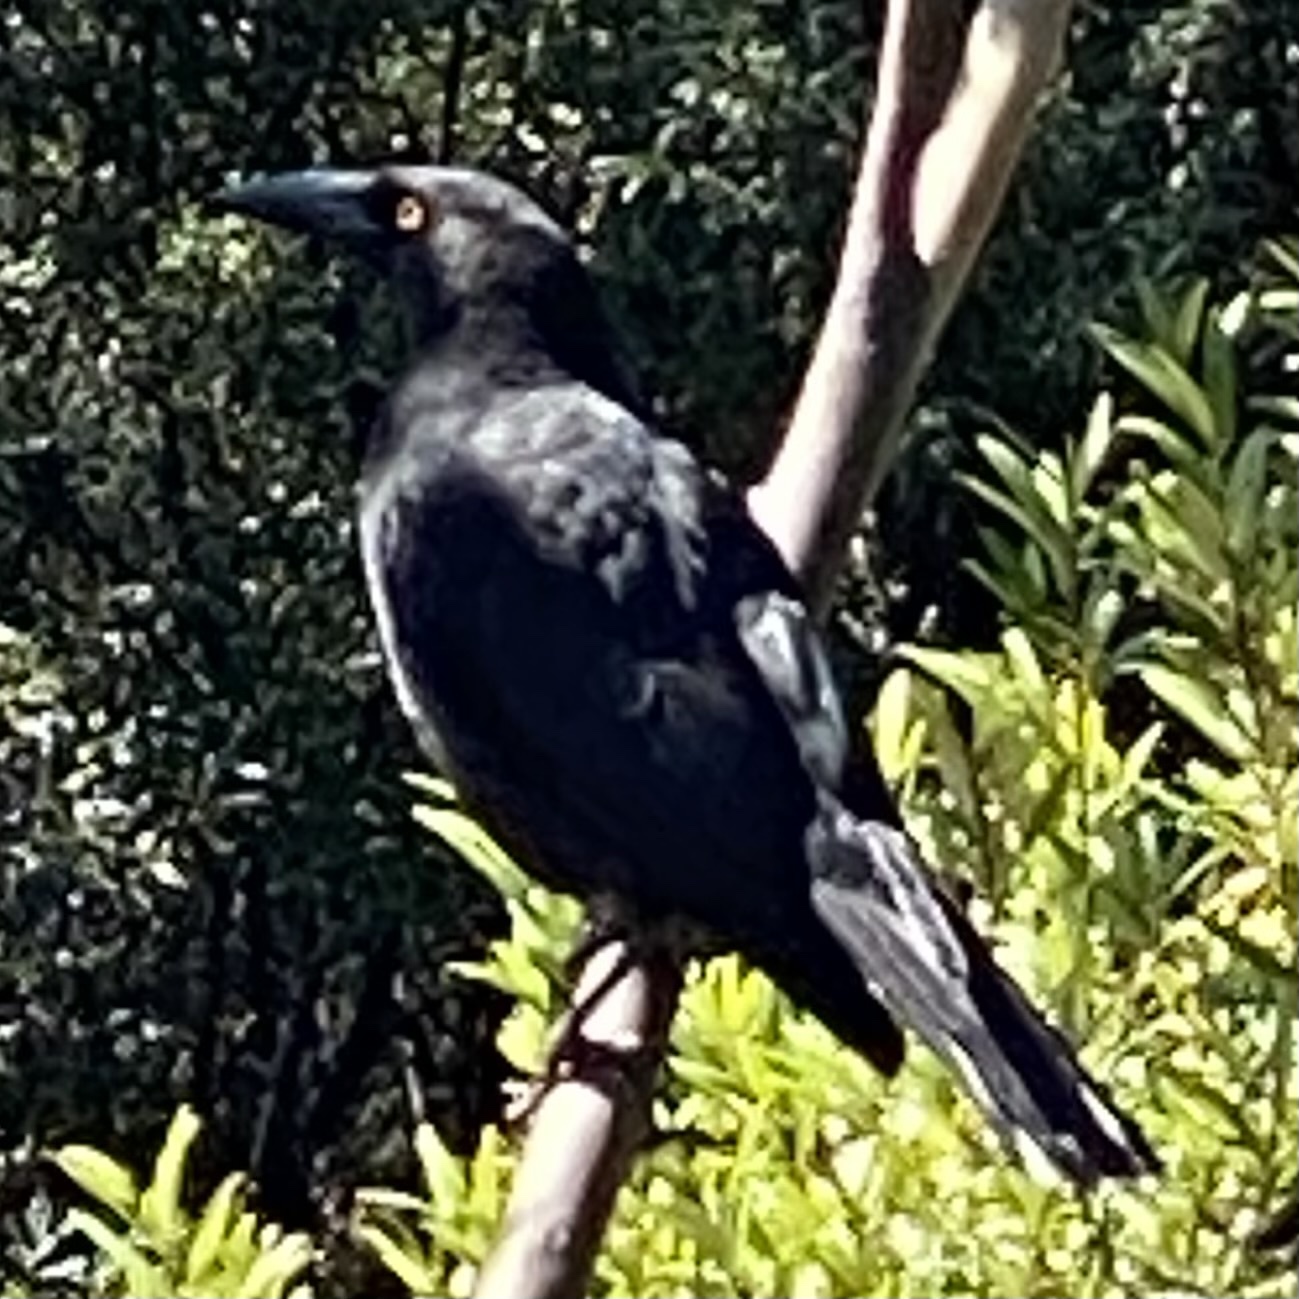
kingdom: Animalia
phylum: Chordata
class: Aves
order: Passeriformes
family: Cracticidae
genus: Strepera
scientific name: Strepera fuliginosa
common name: Black currawong
